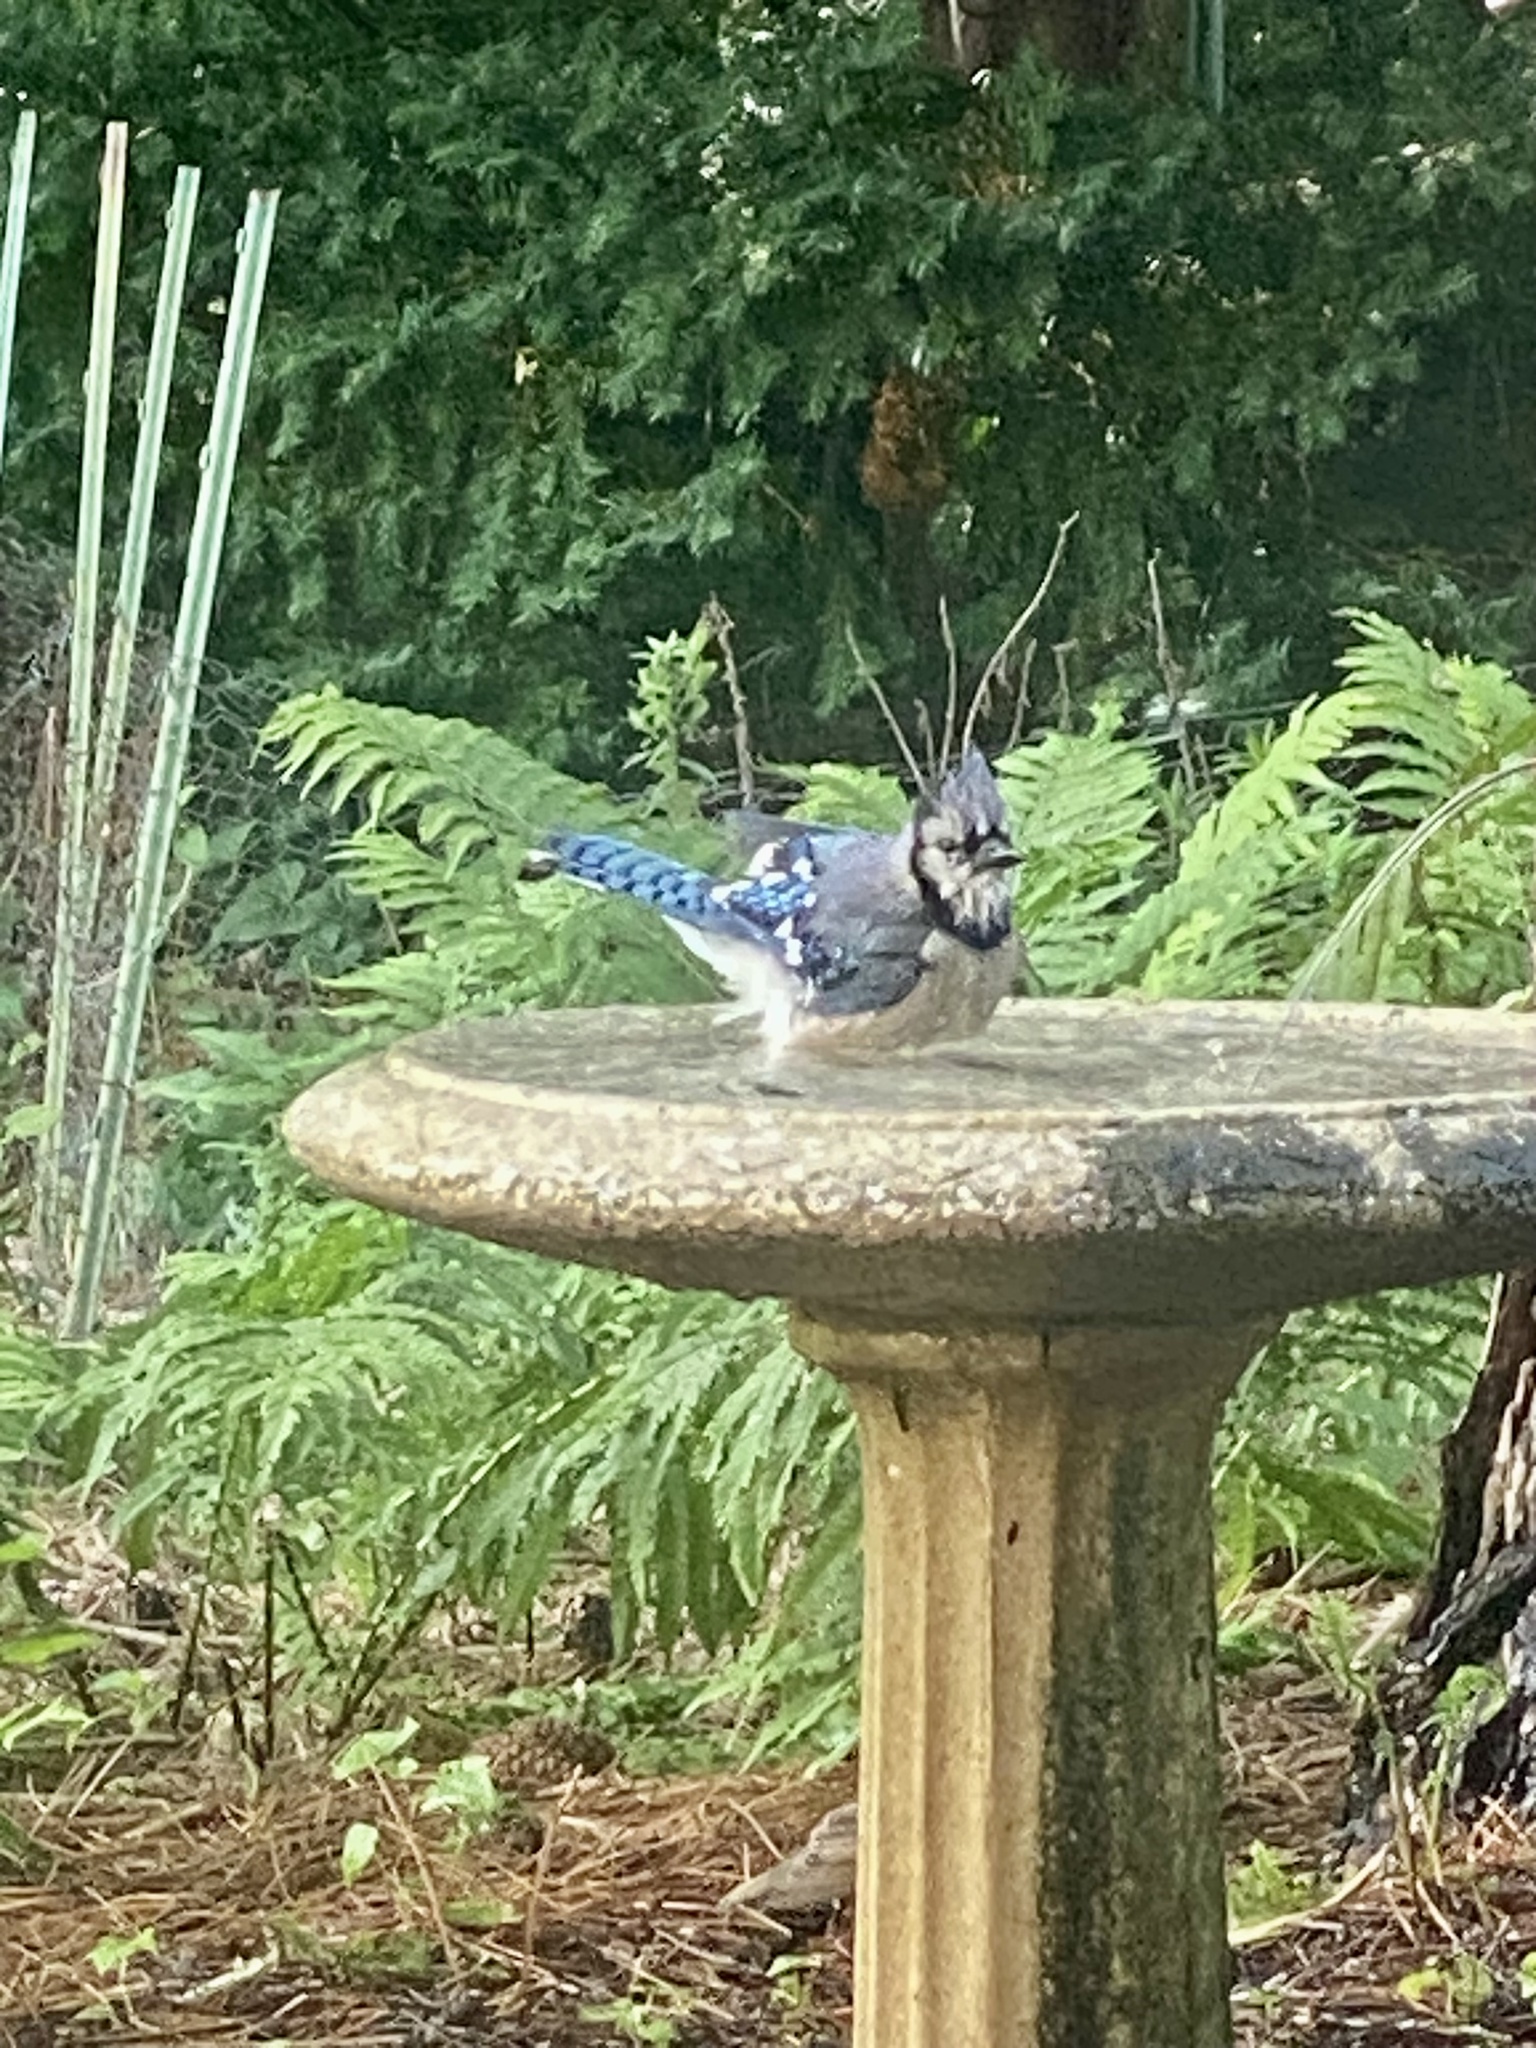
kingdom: Animalia
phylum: Chordata
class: Aves
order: Passeriformes
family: Corvidae
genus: Cyanocitta
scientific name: Cyanocitta cristata
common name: Blue jay
